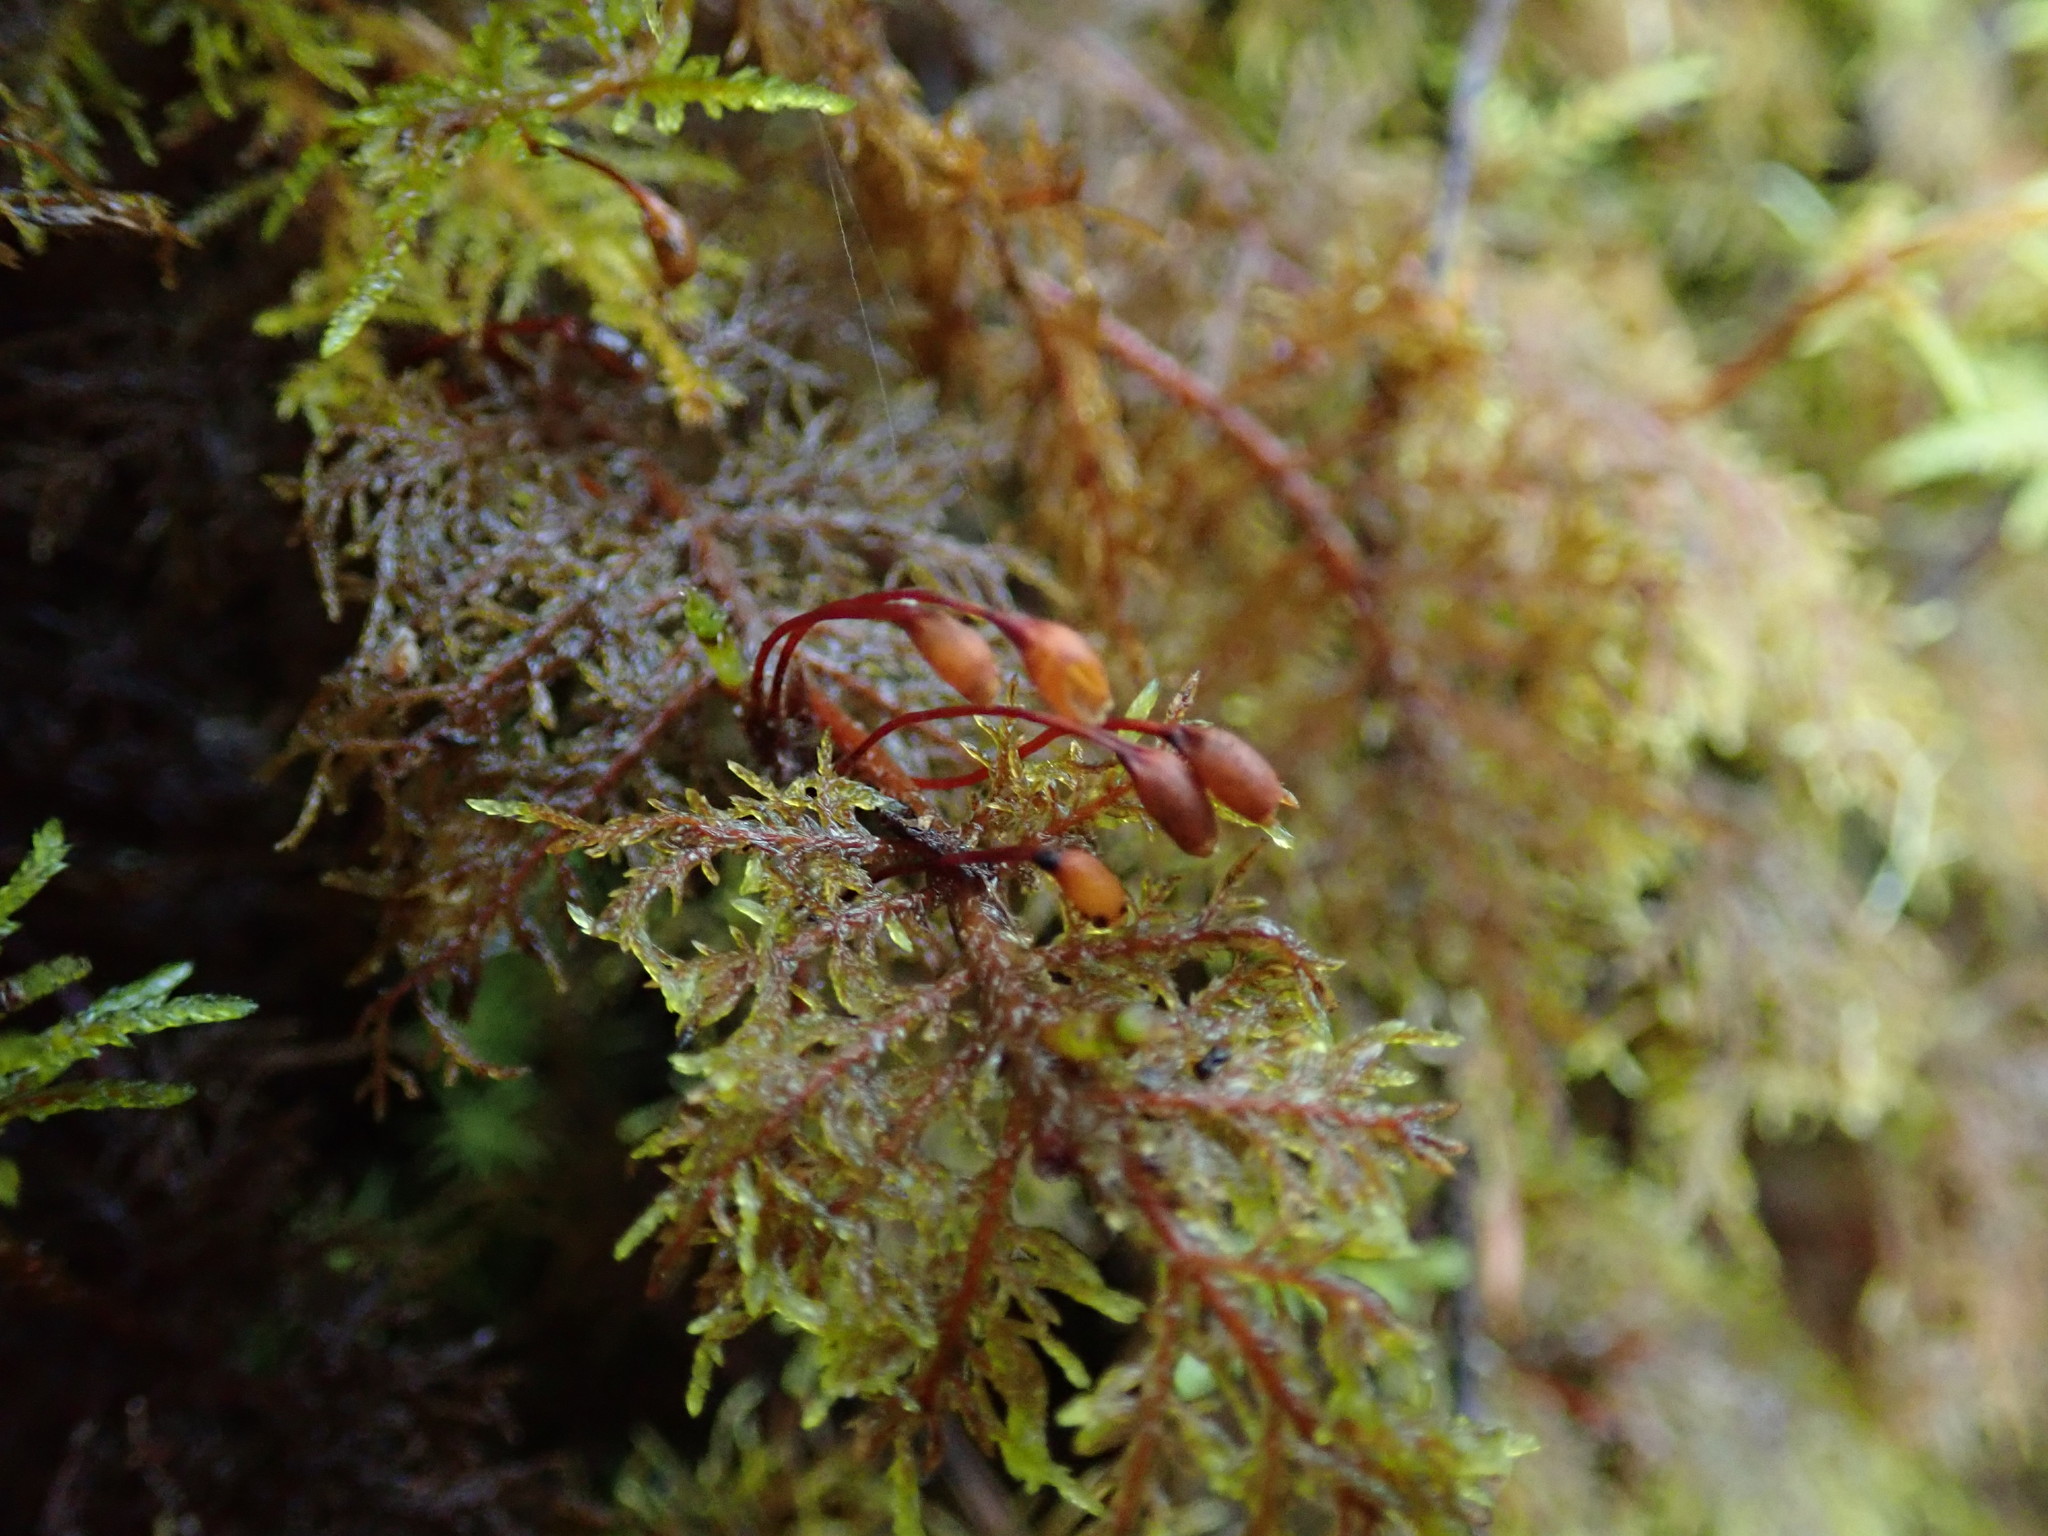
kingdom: Plantae
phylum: Bryophyta
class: Bryopsida
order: Hypnales
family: Hylocomiaceae
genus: Hylocomium
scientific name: Hylocomium splendens
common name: Stairstep moss
